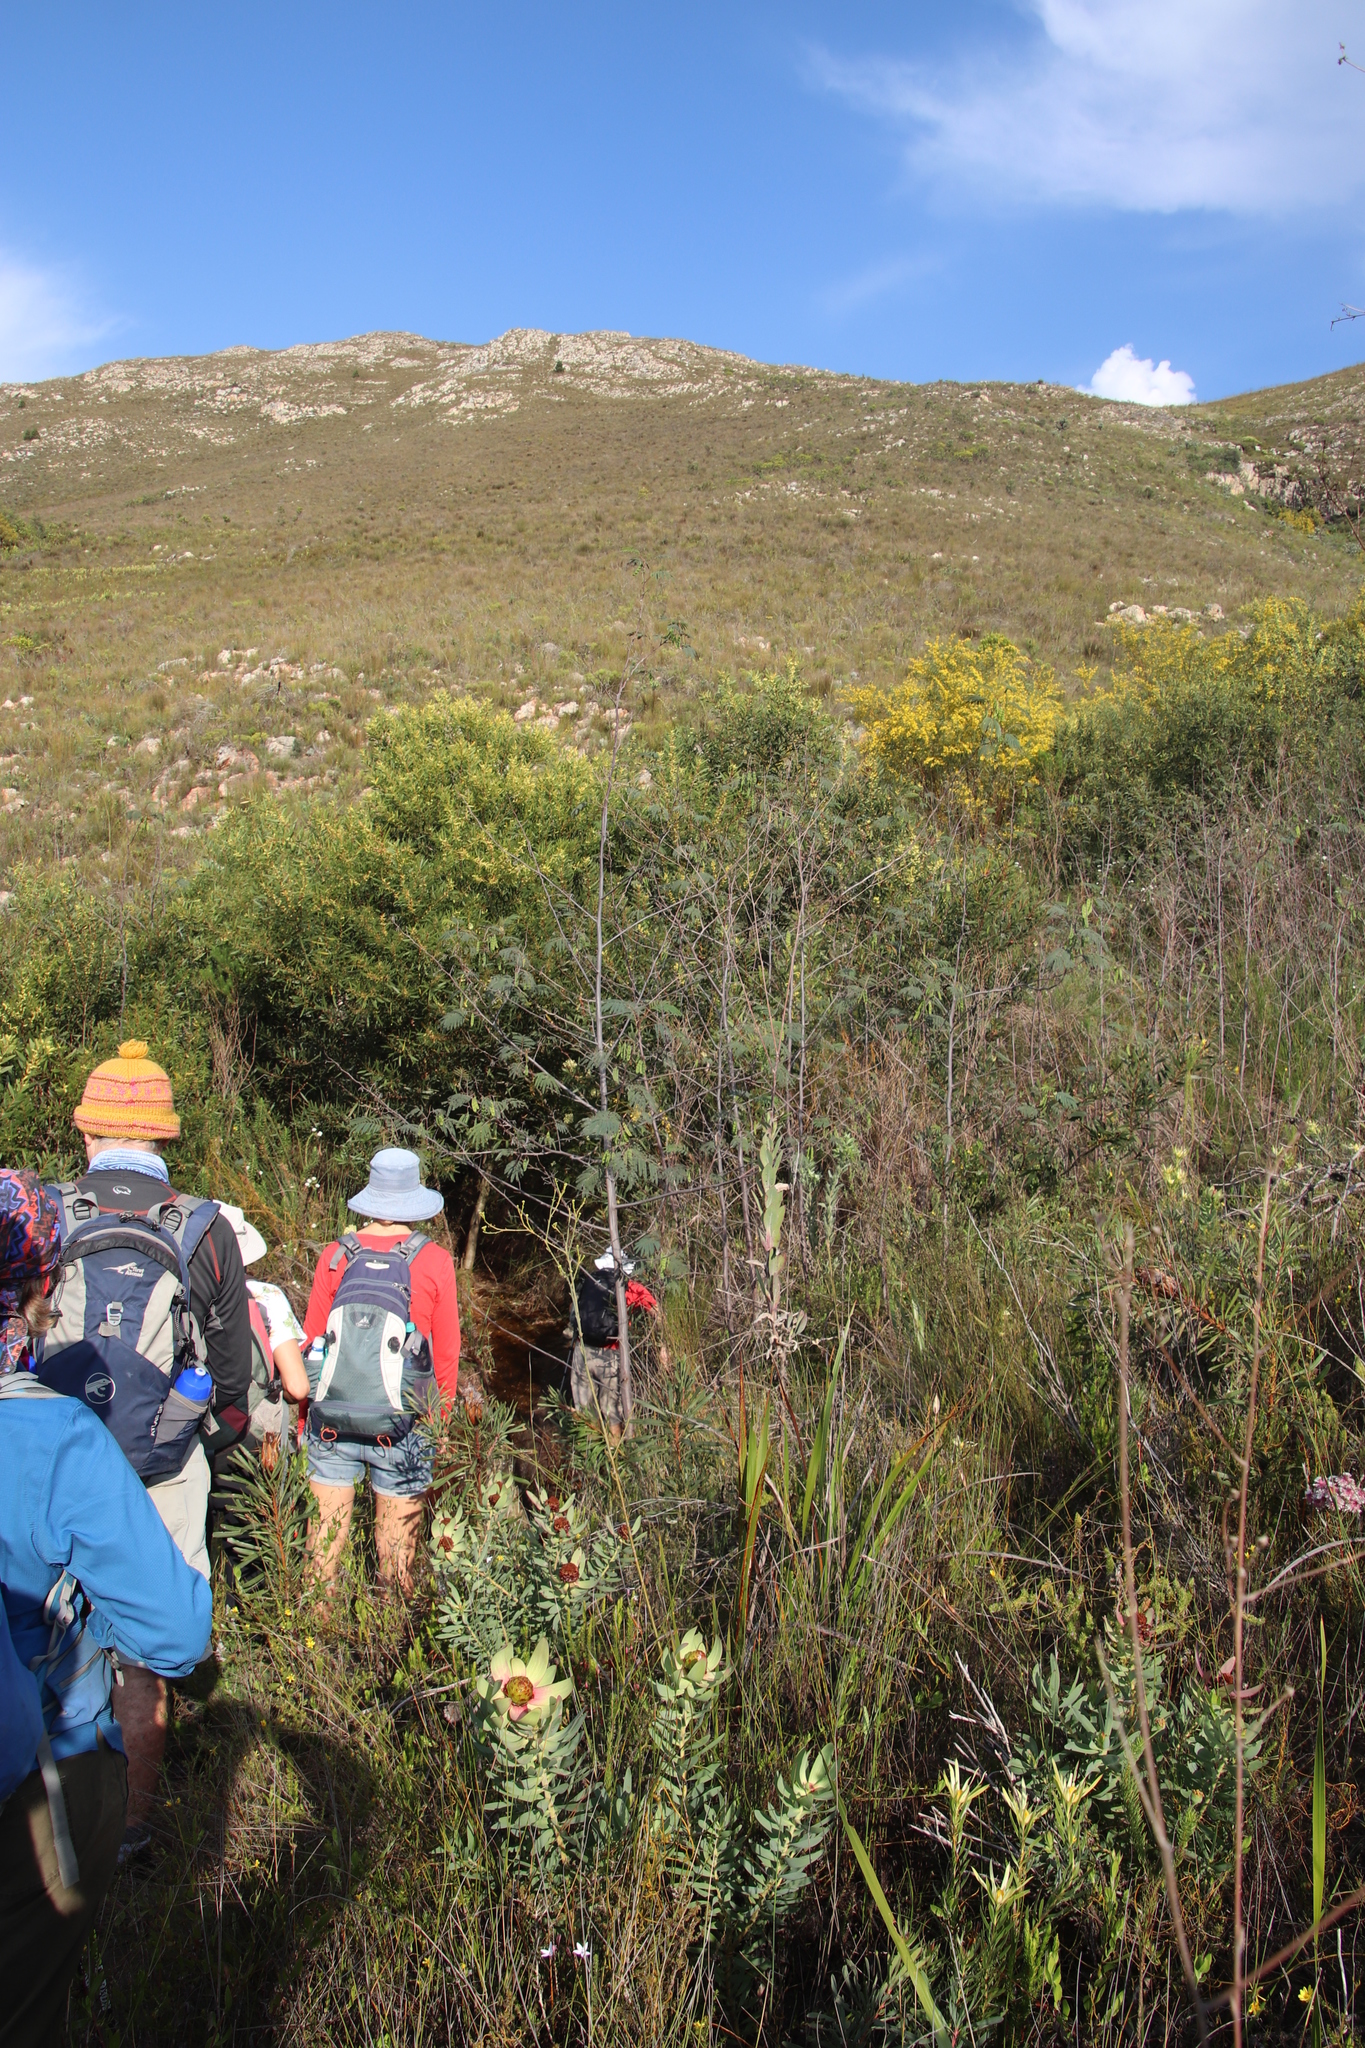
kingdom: Plantae
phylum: Tracheophyta
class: Magnoliopsida
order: Fabales
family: Fabaceae
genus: Paraserianthes
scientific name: Paraserianthes lophantha
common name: Plume albizia
